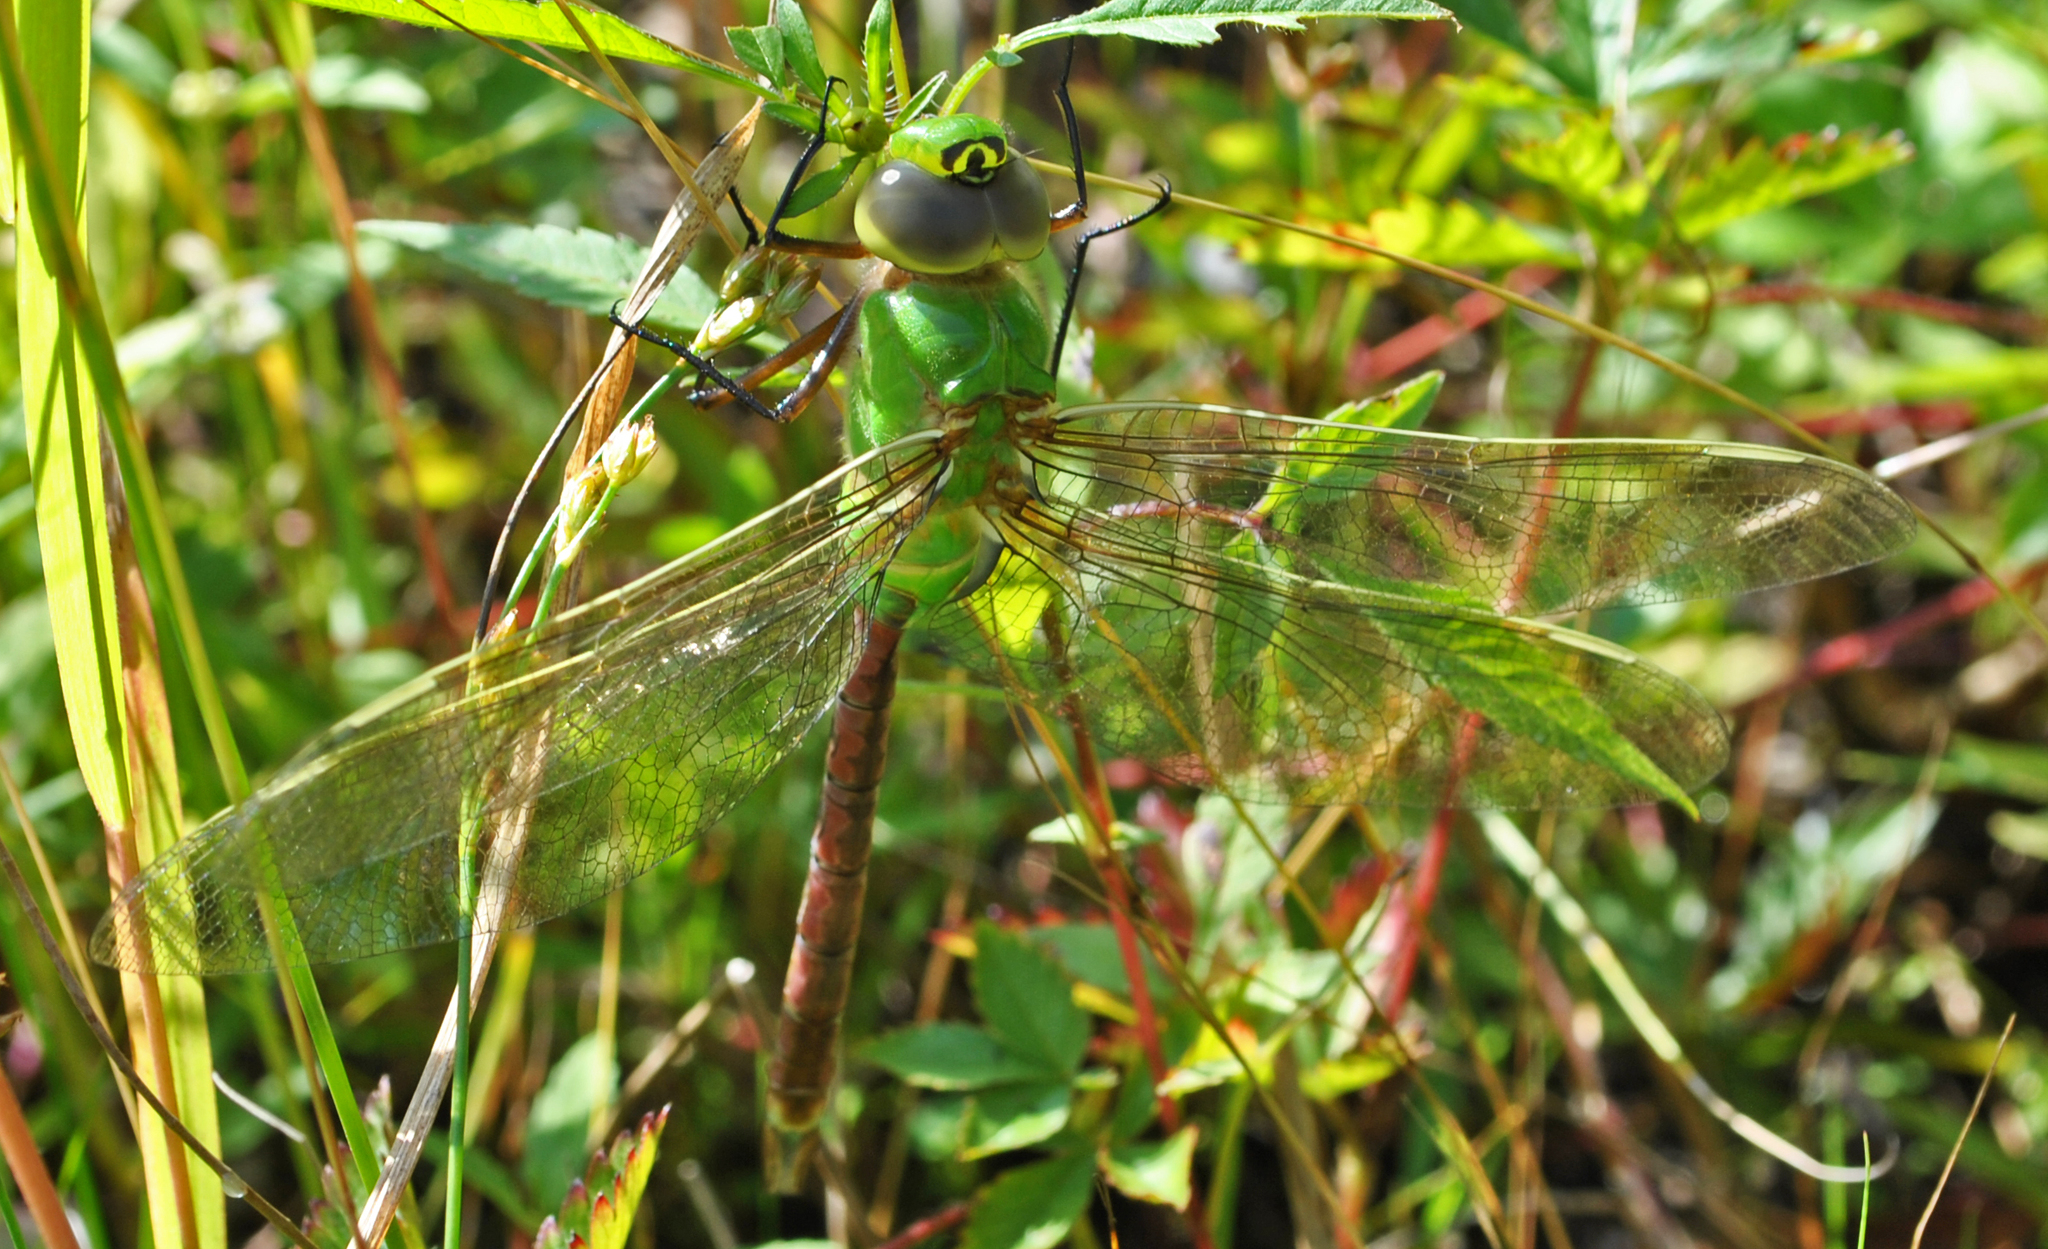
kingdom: Animalia
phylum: Arthropoda
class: Insecta
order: Odonata
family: Aeshnidae
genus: Anax
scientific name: Anax junius
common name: Common green darner
